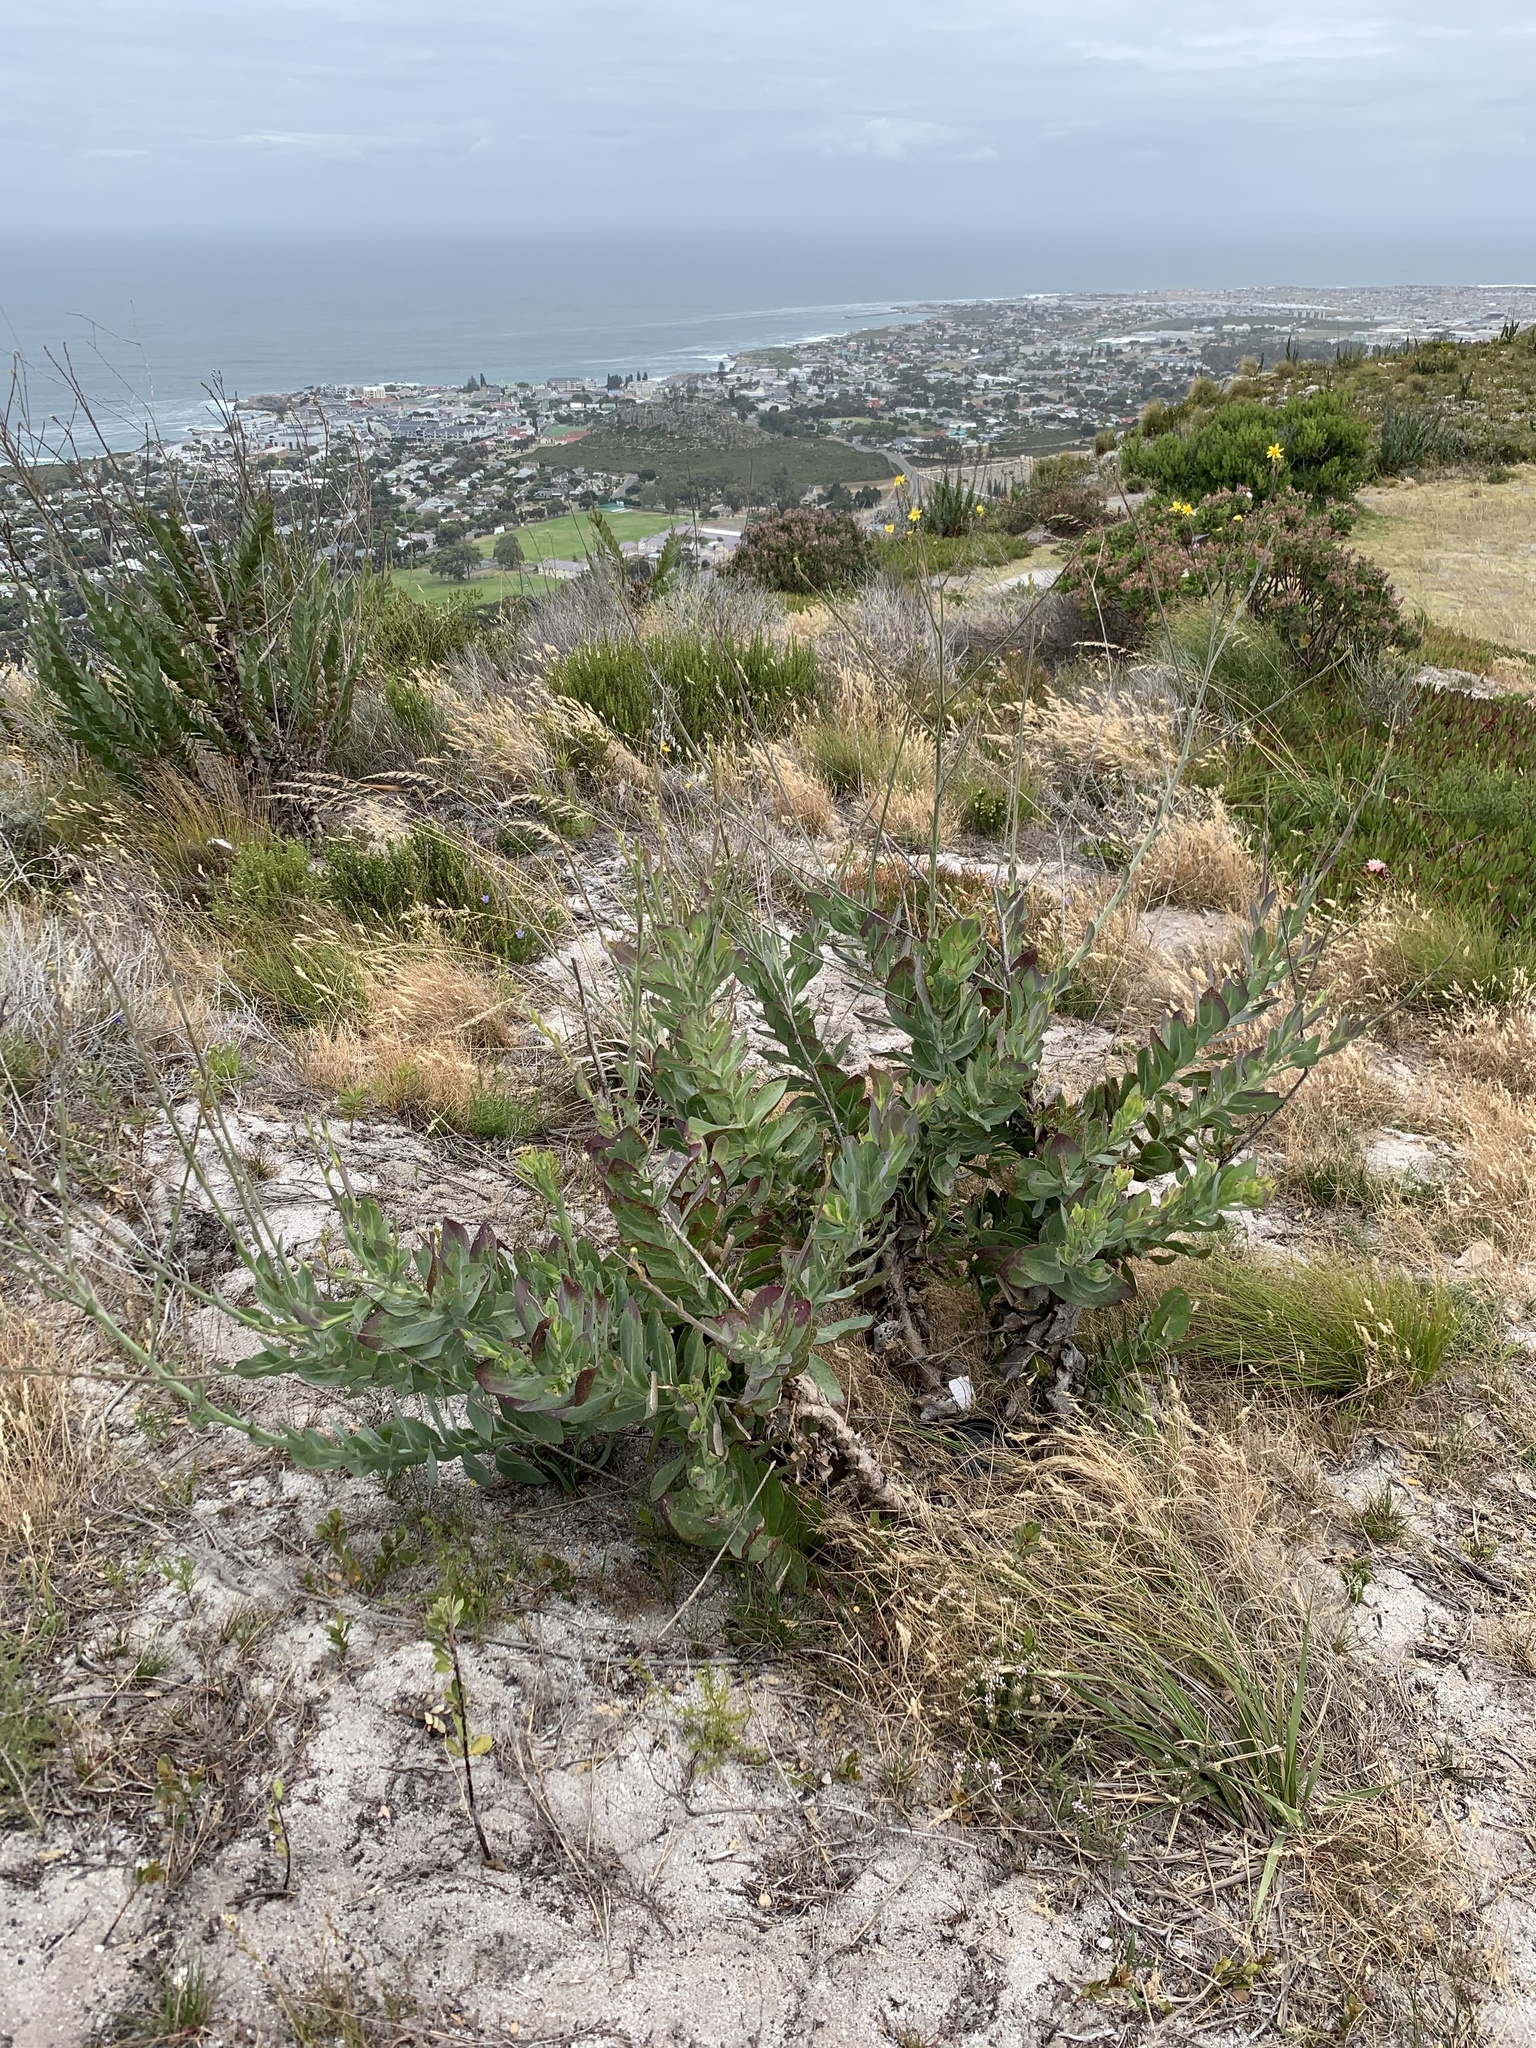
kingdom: Plantae
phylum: Tracheophyta
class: Magnoliopsida
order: Asterales
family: Asteraceae
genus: Othonna
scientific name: Othonna quinquedentata
